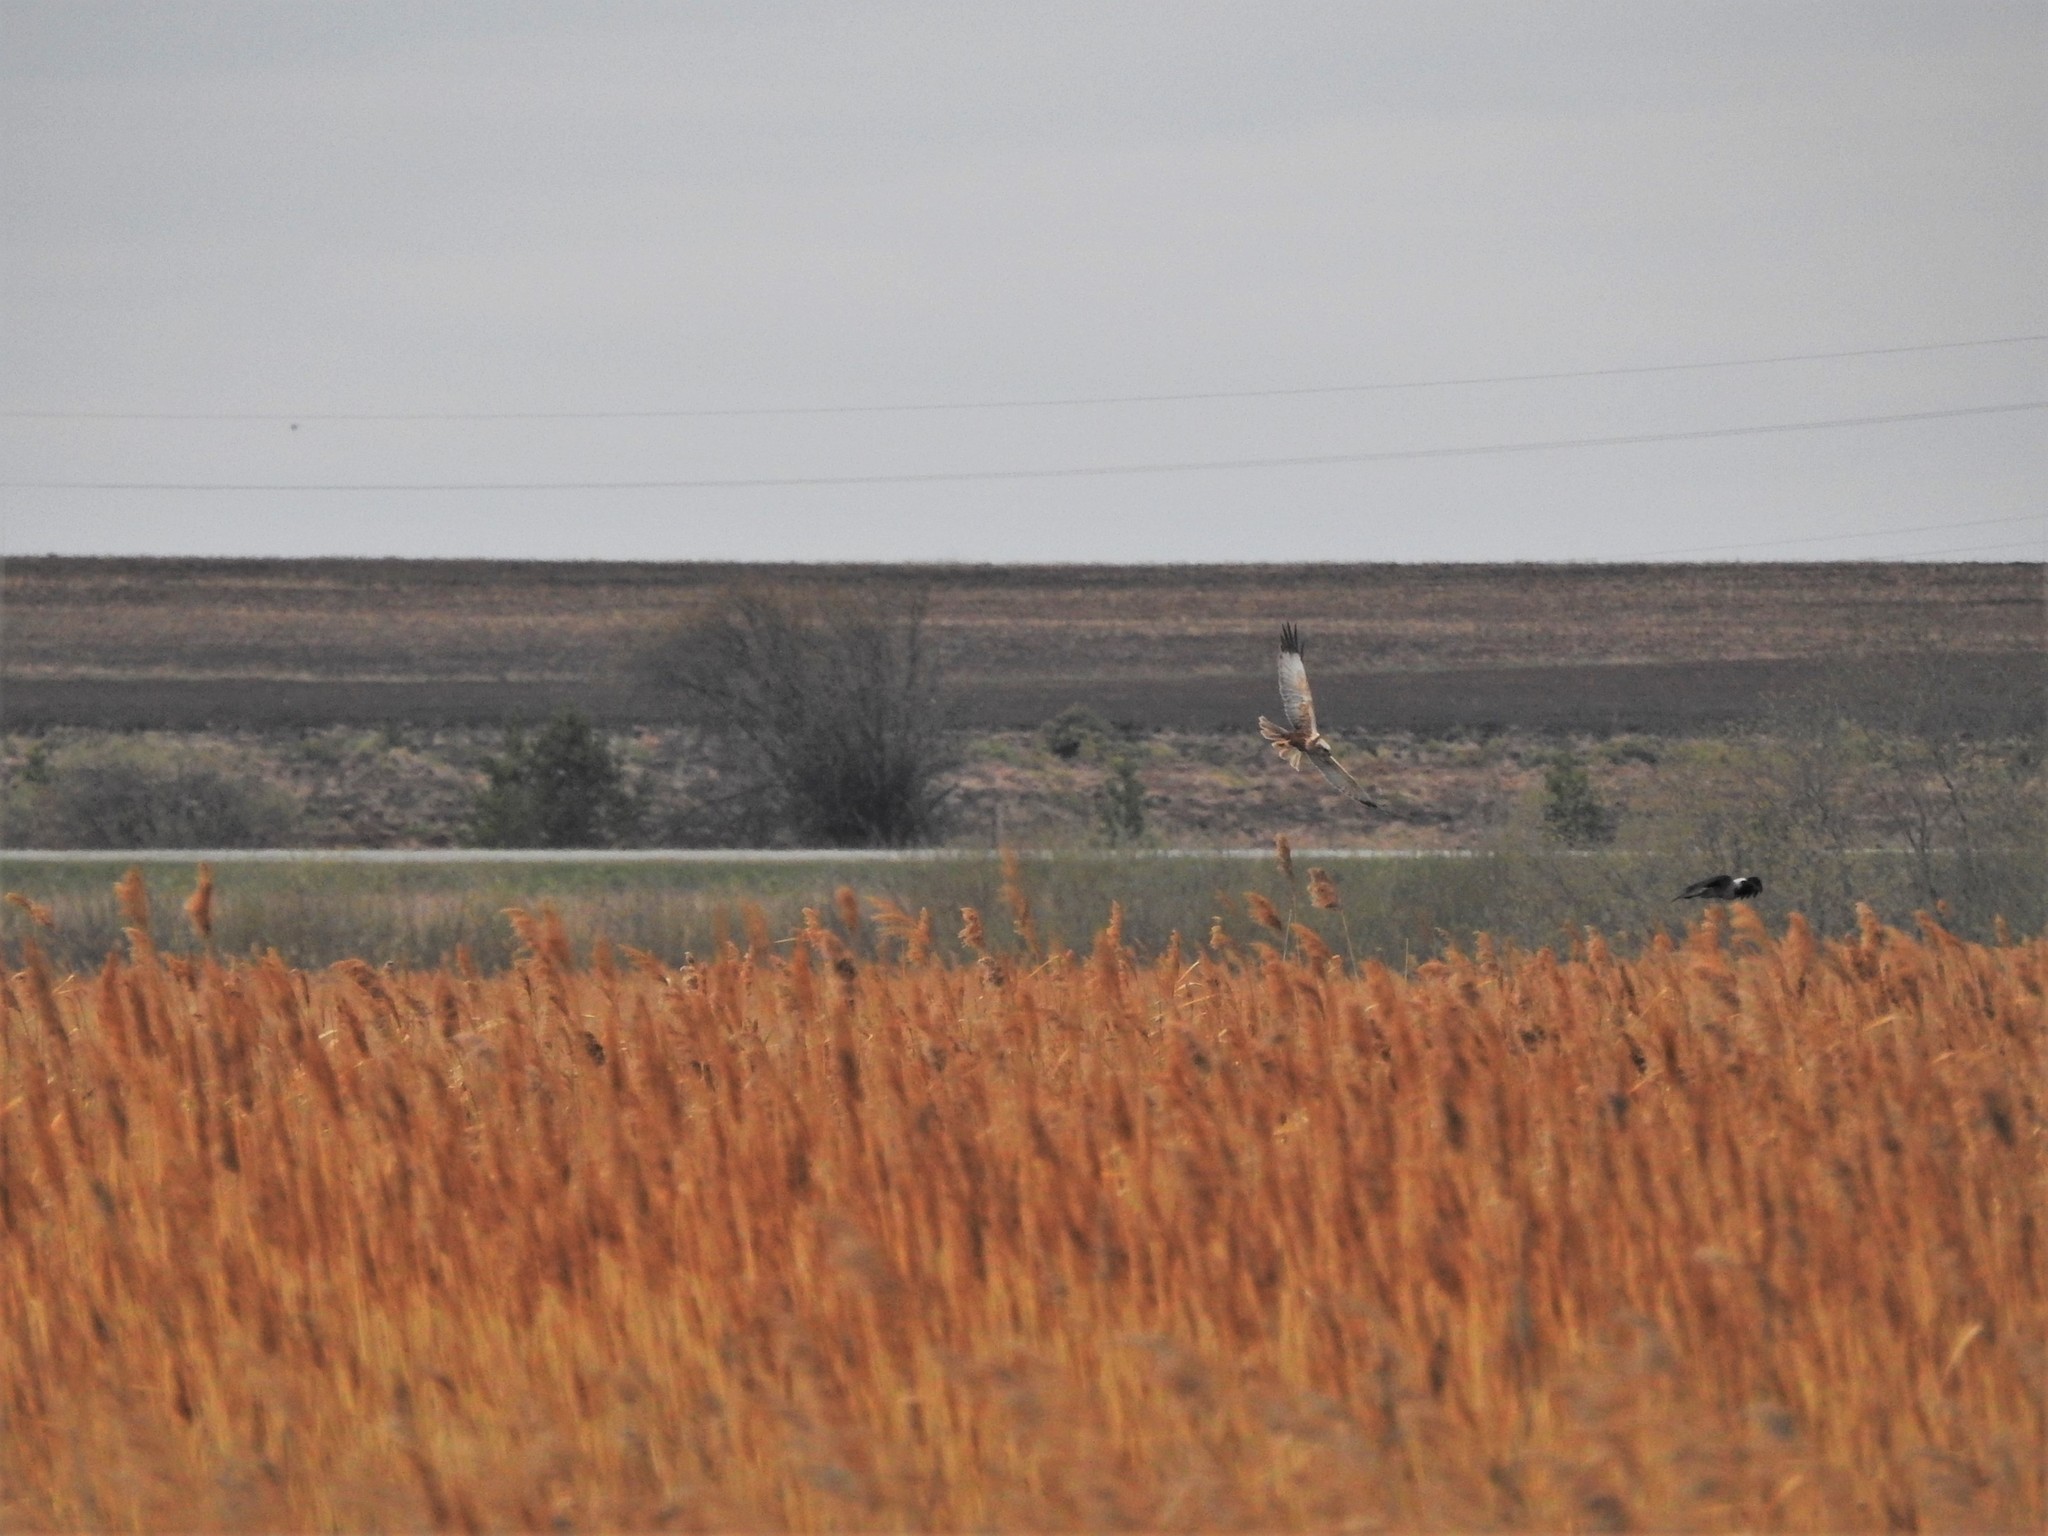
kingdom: Animalia
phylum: Chordata
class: Aves
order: Accipitriformes
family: Accipitridae
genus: Circus
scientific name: Circus aeruginosus
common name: Western marsh harrier
